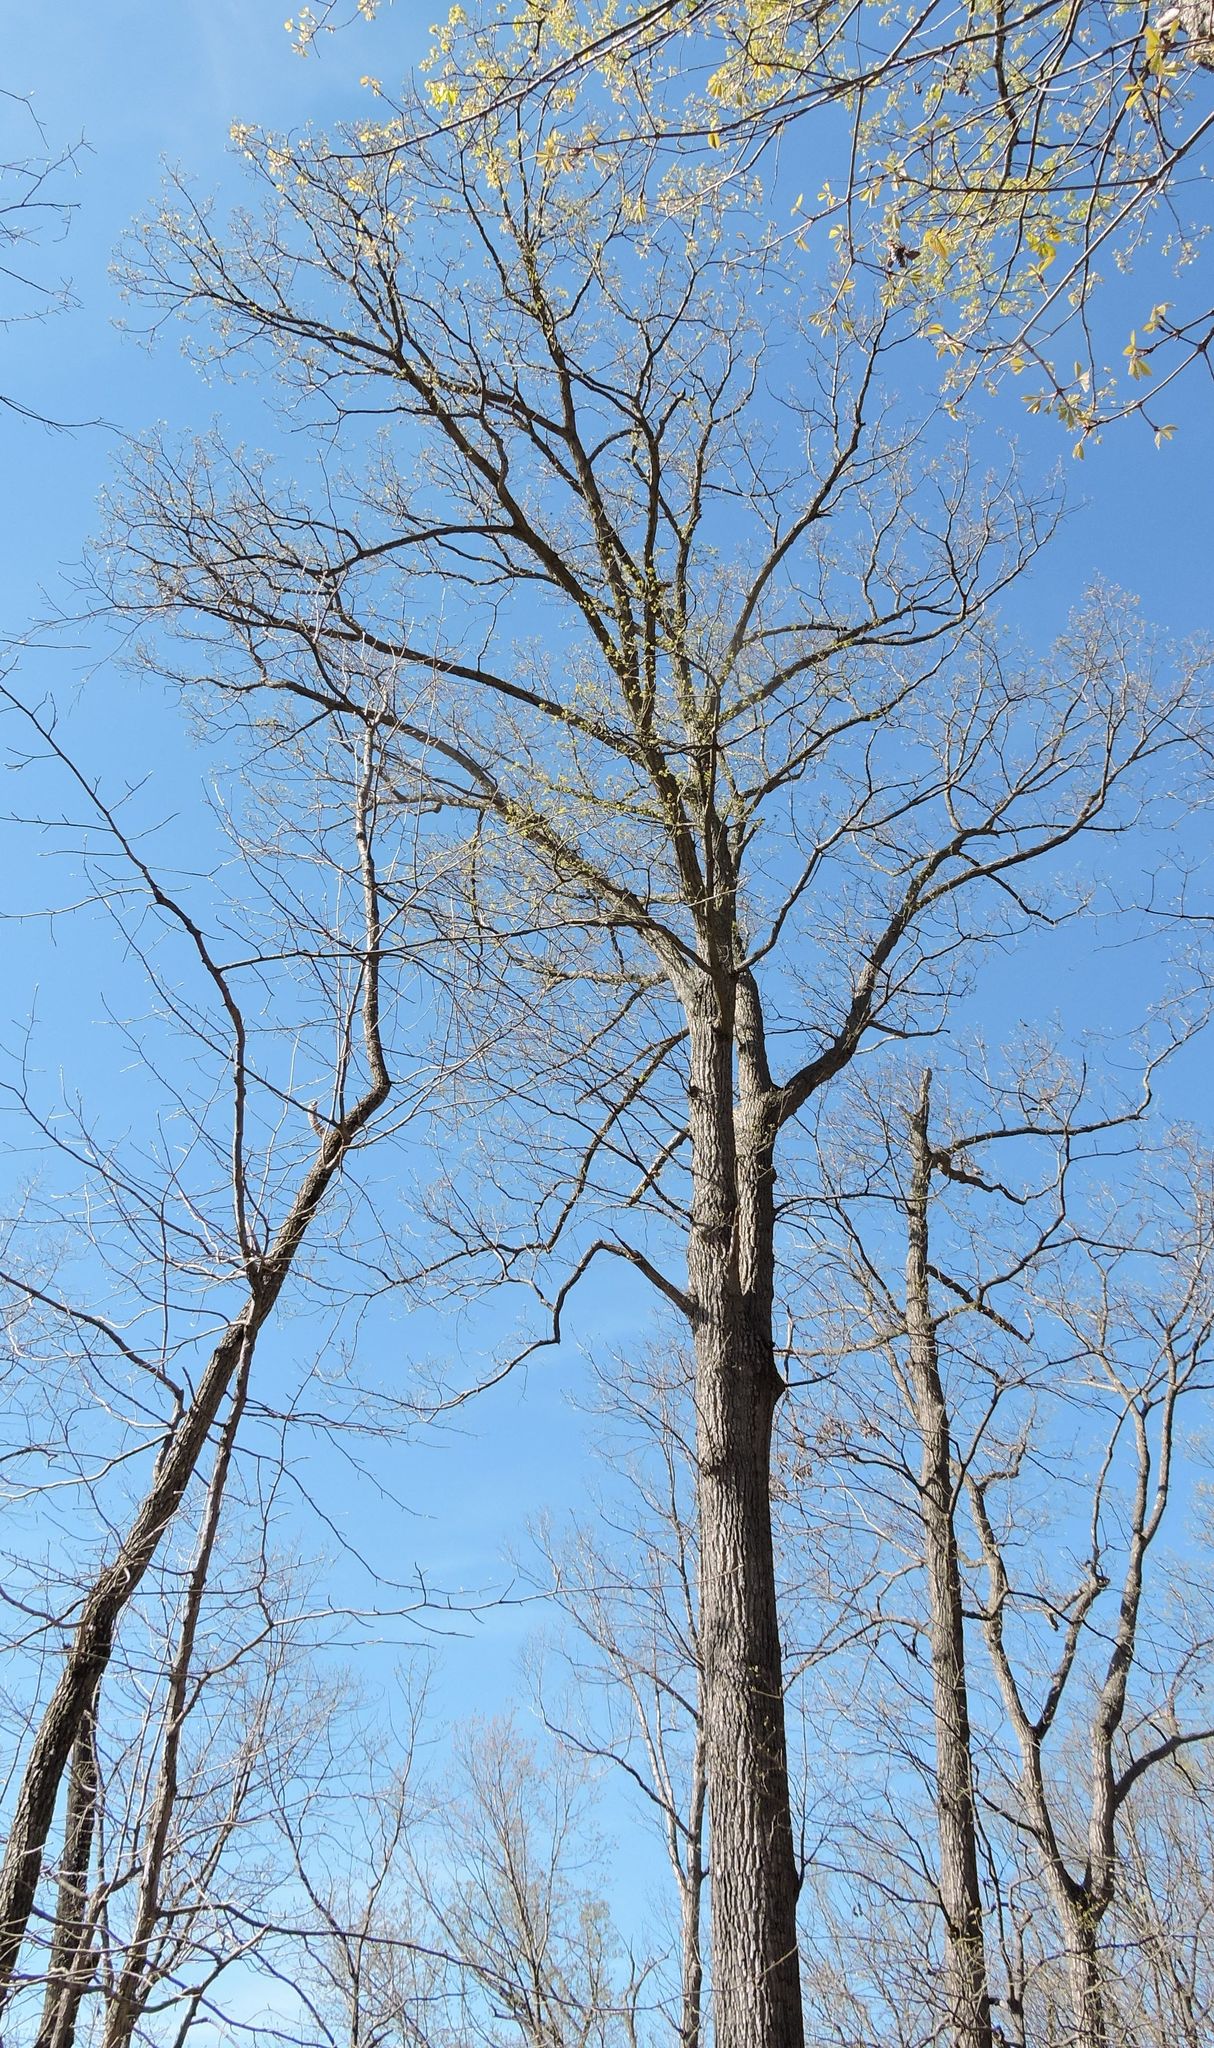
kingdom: Plantae
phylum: Tracheophyta
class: Magnoliopsida
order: Fagales
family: Fagaceae
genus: Quercus
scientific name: Quercus montana
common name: Chestnut oak
